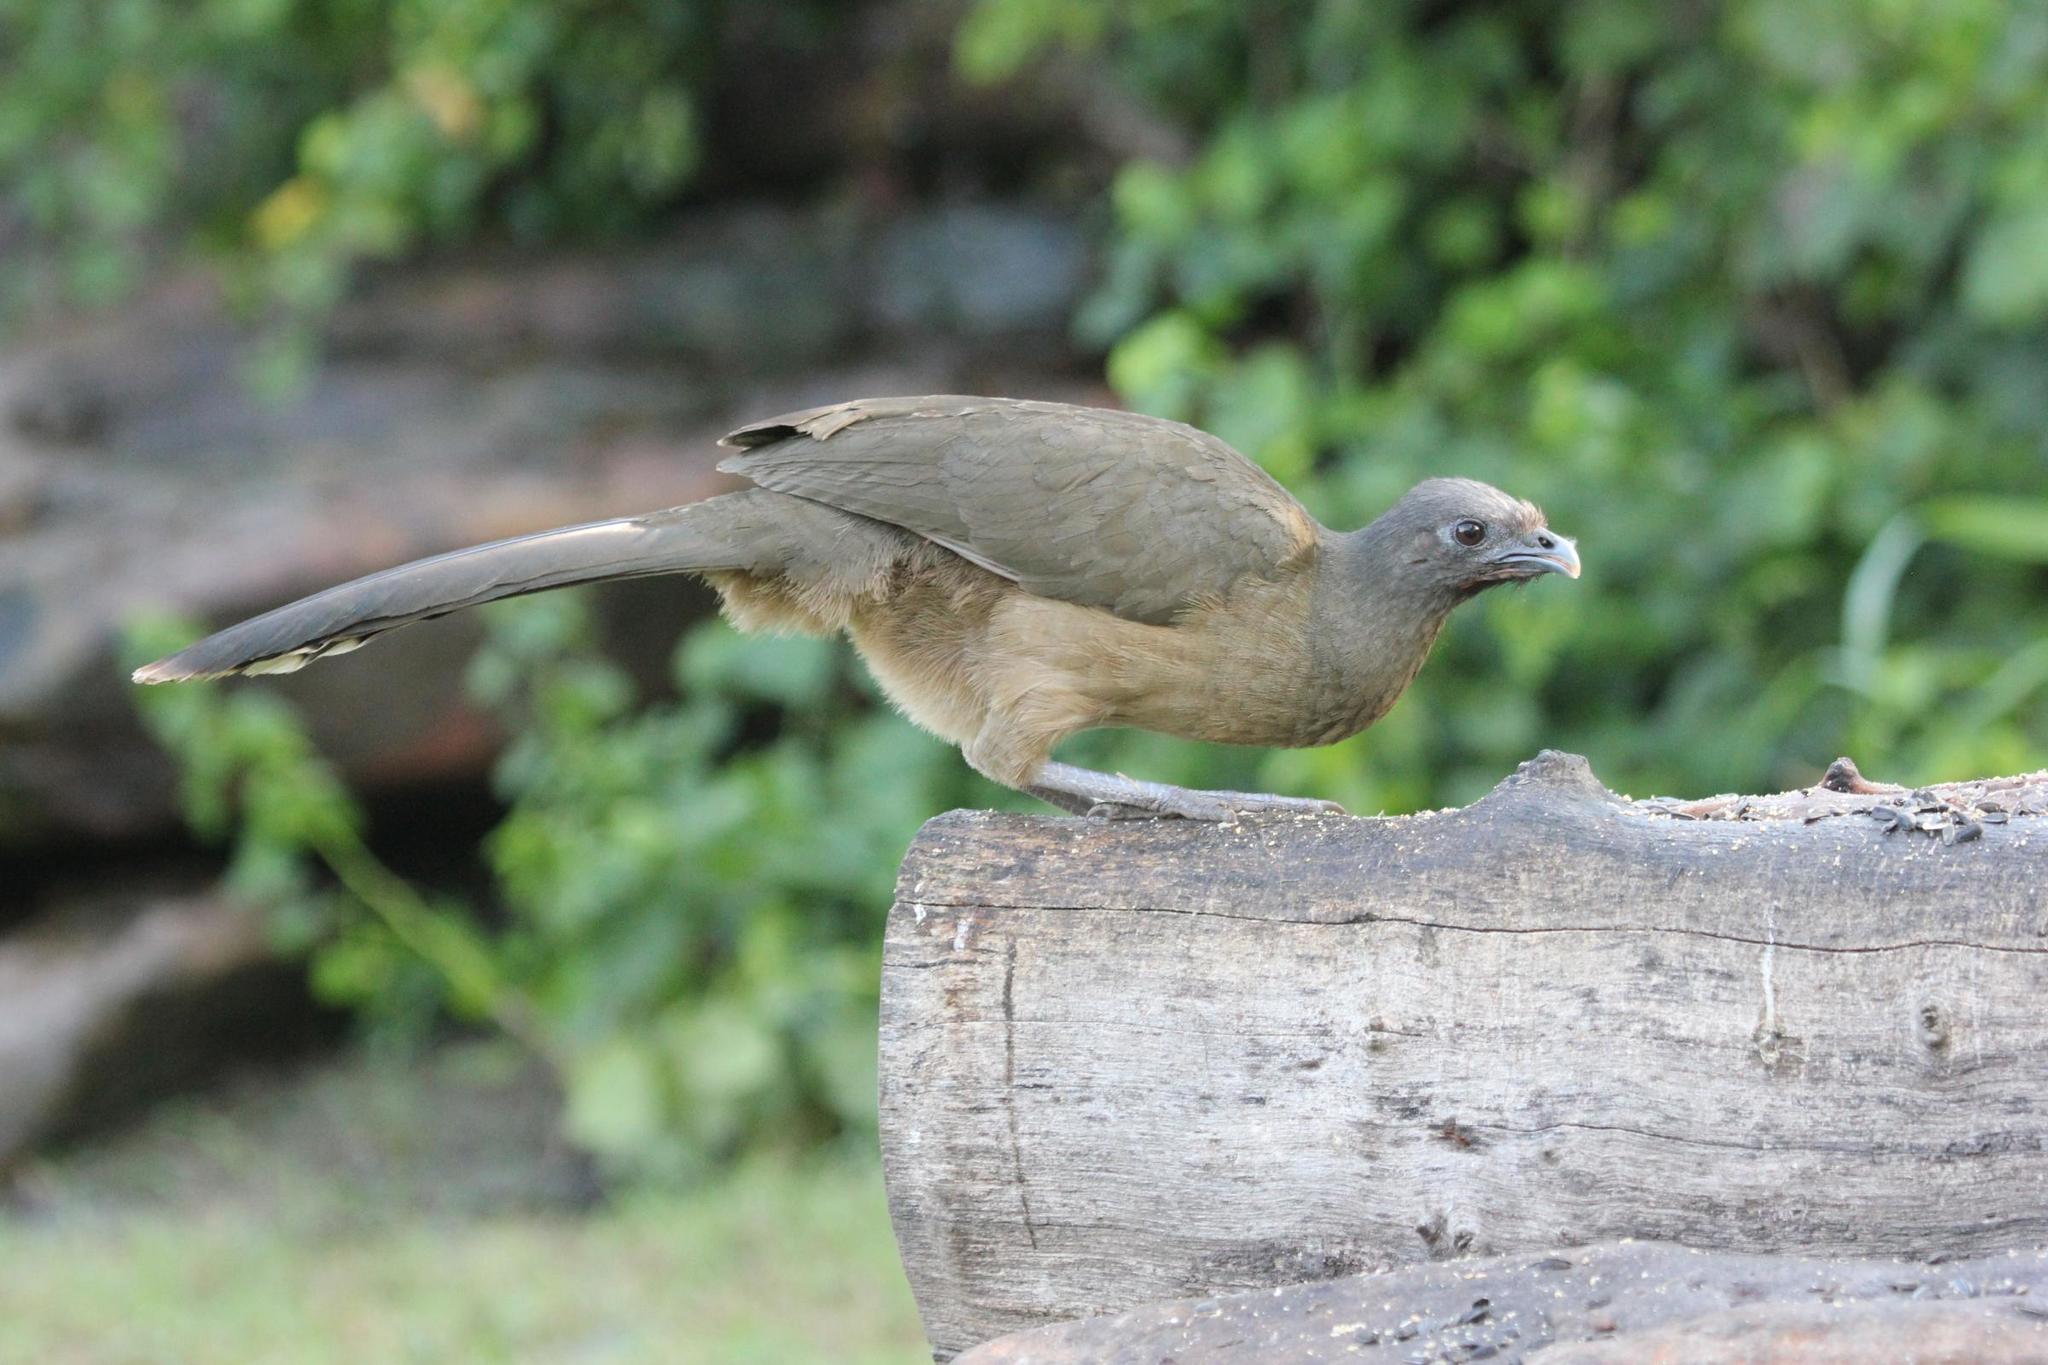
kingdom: Animalia
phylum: Chordata
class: Aves
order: Galliformes
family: Cracidae
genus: Ortalis
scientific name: Ortalis vetula
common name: Plain chachalaca
